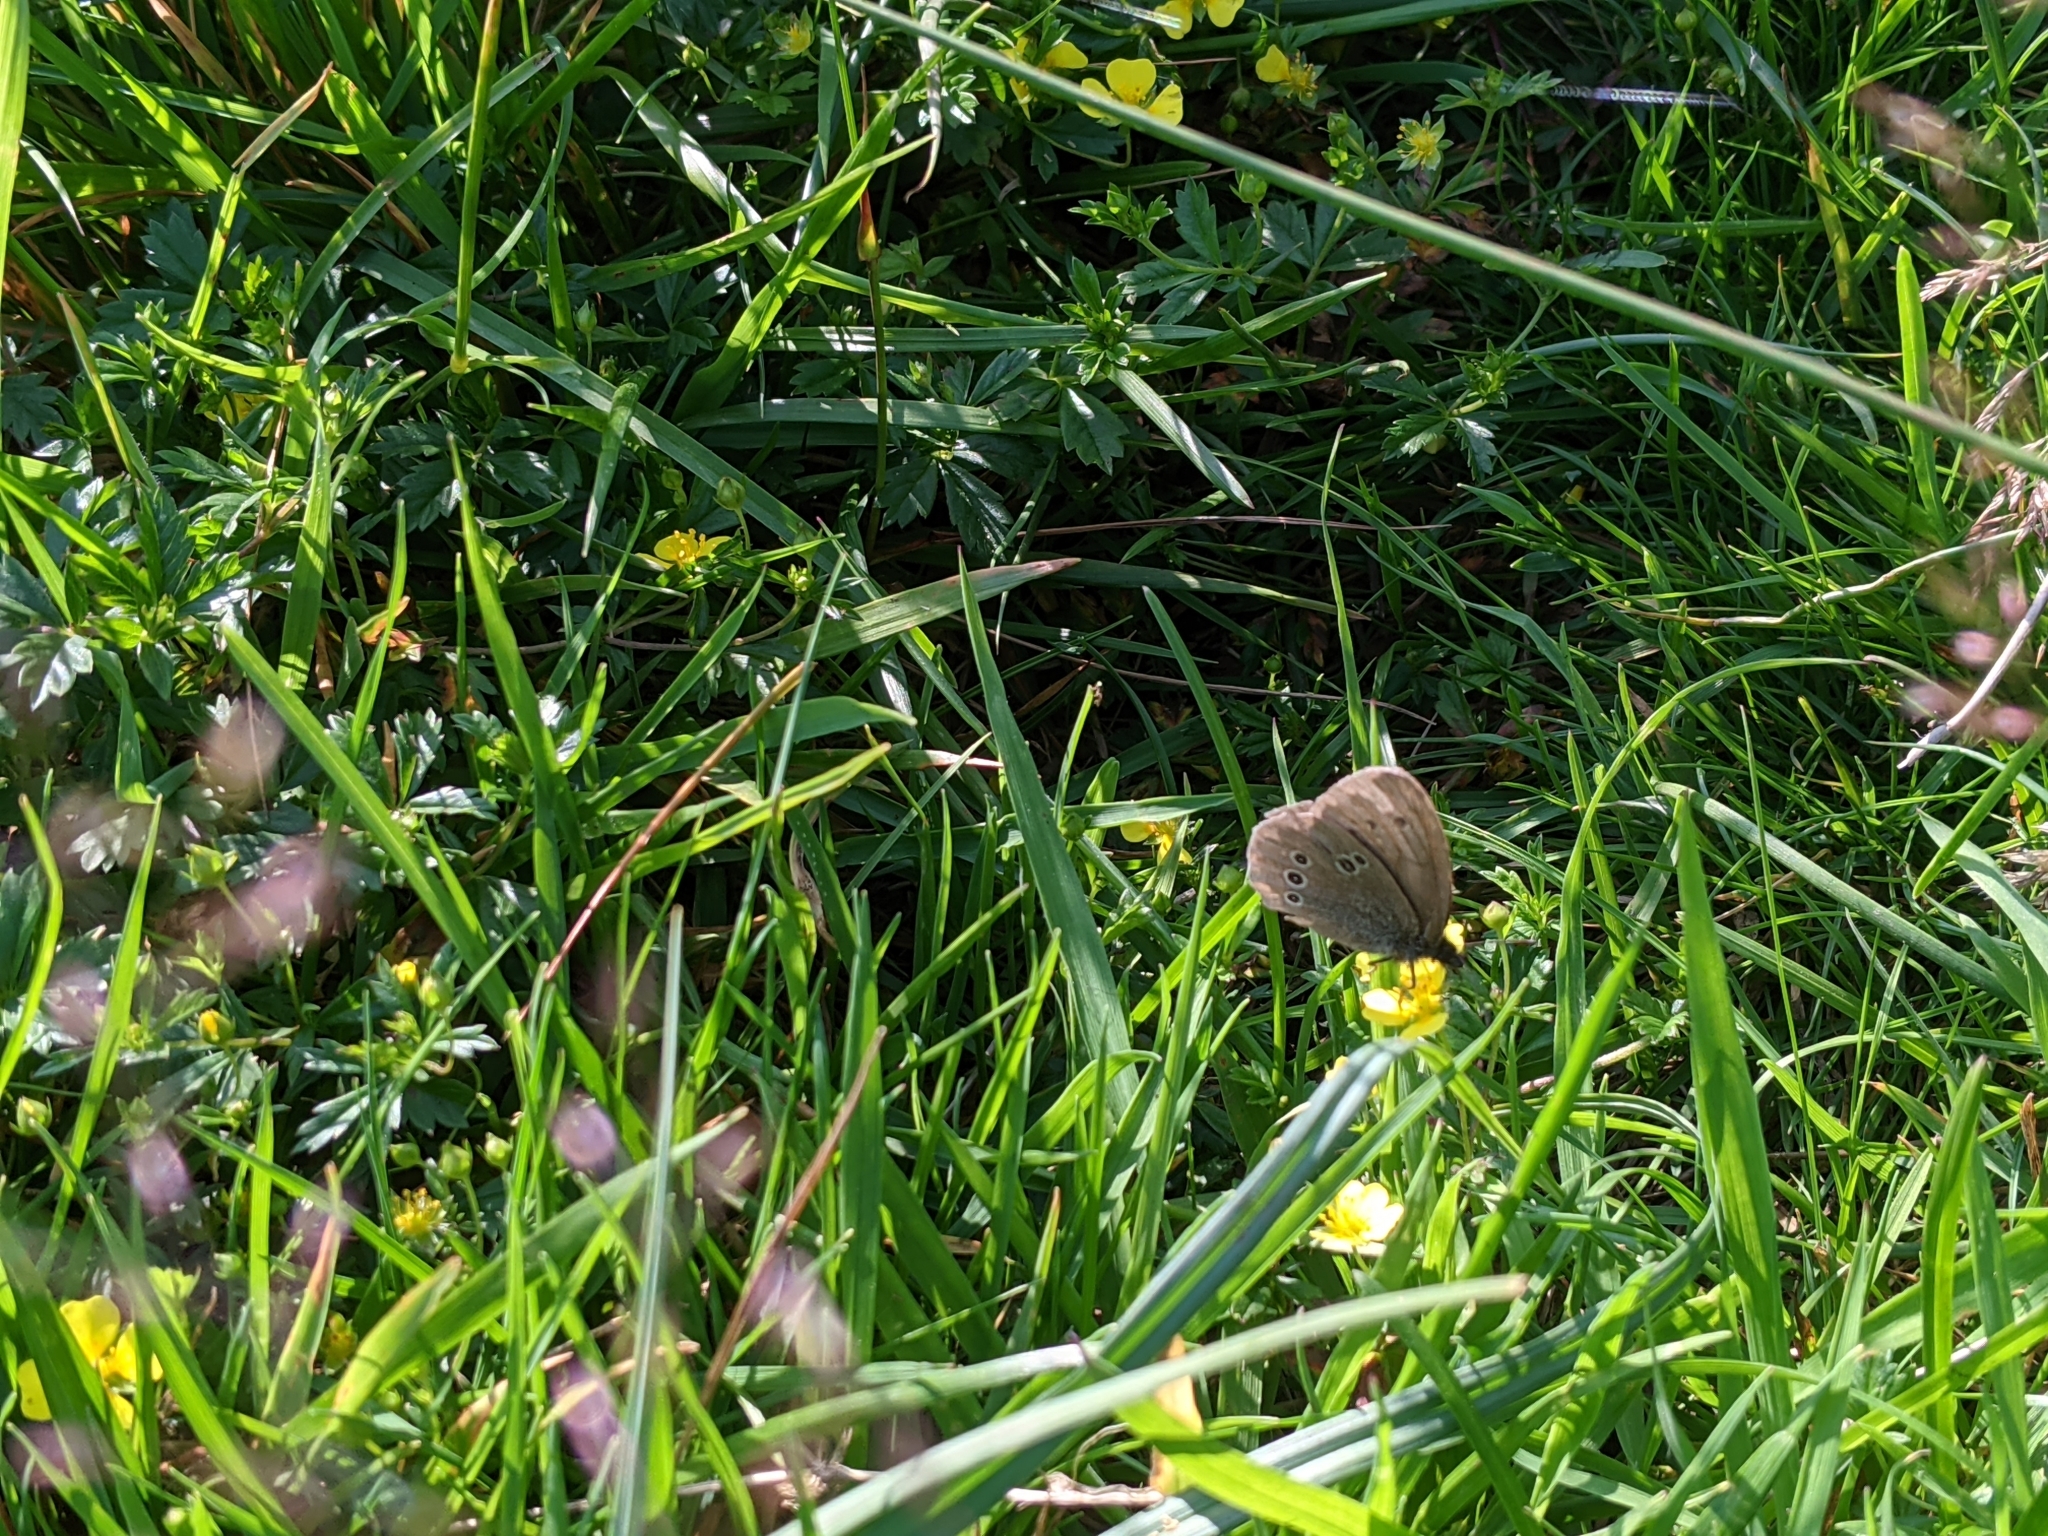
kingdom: Animalia
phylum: Arthropoda
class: Insecta
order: Lepidoptera
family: Nymphalidae
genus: Aphantopus
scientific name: Aphantopus hyperantus
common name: Ringlet
